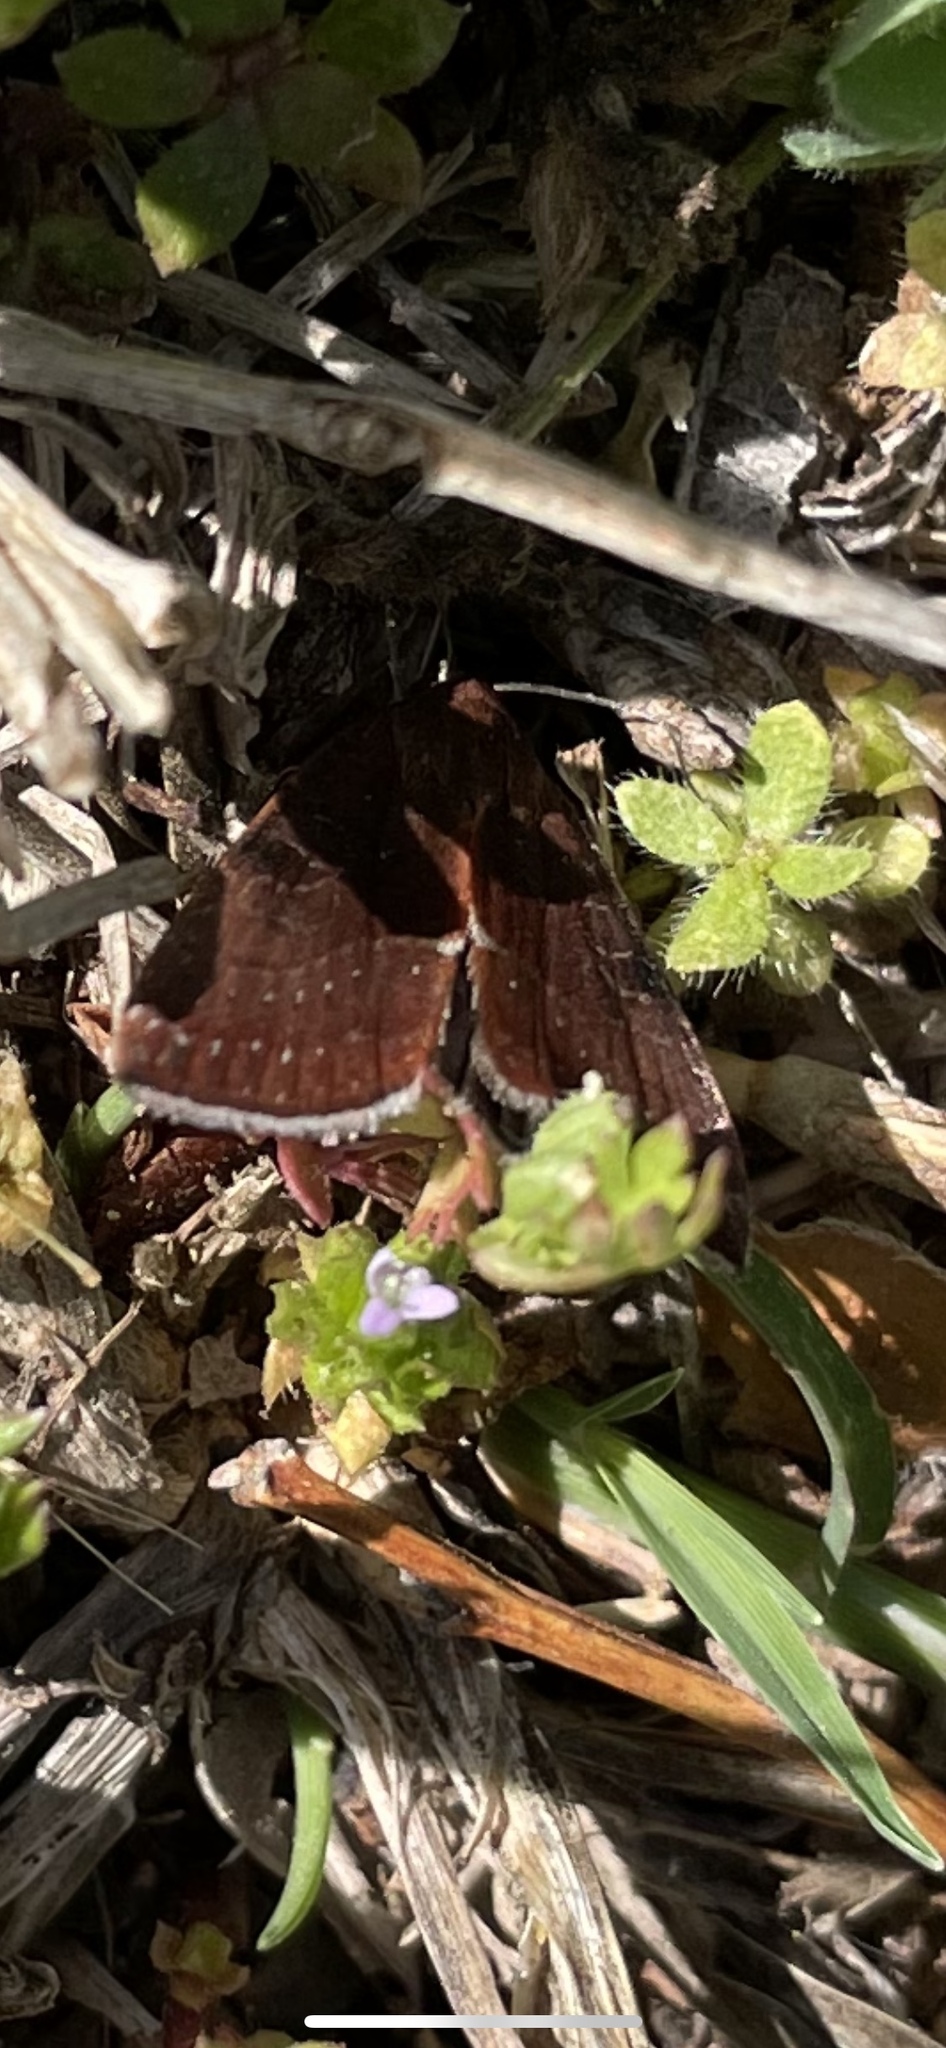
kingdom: Animalia
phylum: Arthropoda
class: Insecta
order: Lepidoptera
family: Noctuidae
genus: Galgula
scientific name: Galgula partita
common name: Wedgeling
